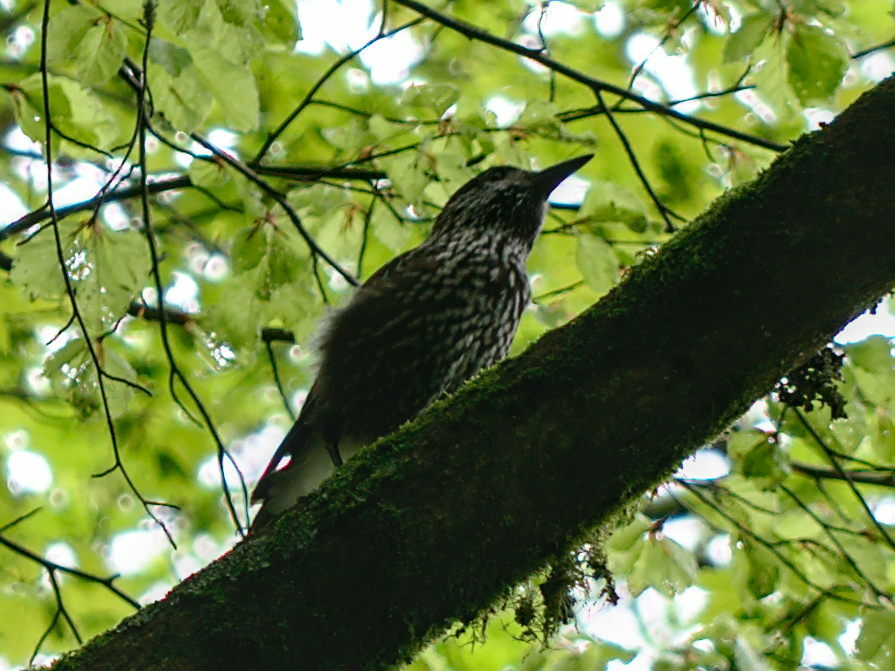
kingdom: Animalia
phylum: Chordata
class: Aves
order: Passeriformes
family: Corvidae
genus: Nucifraga
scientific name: Nucifraga caryocatactes
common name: Spotted nutcracker
